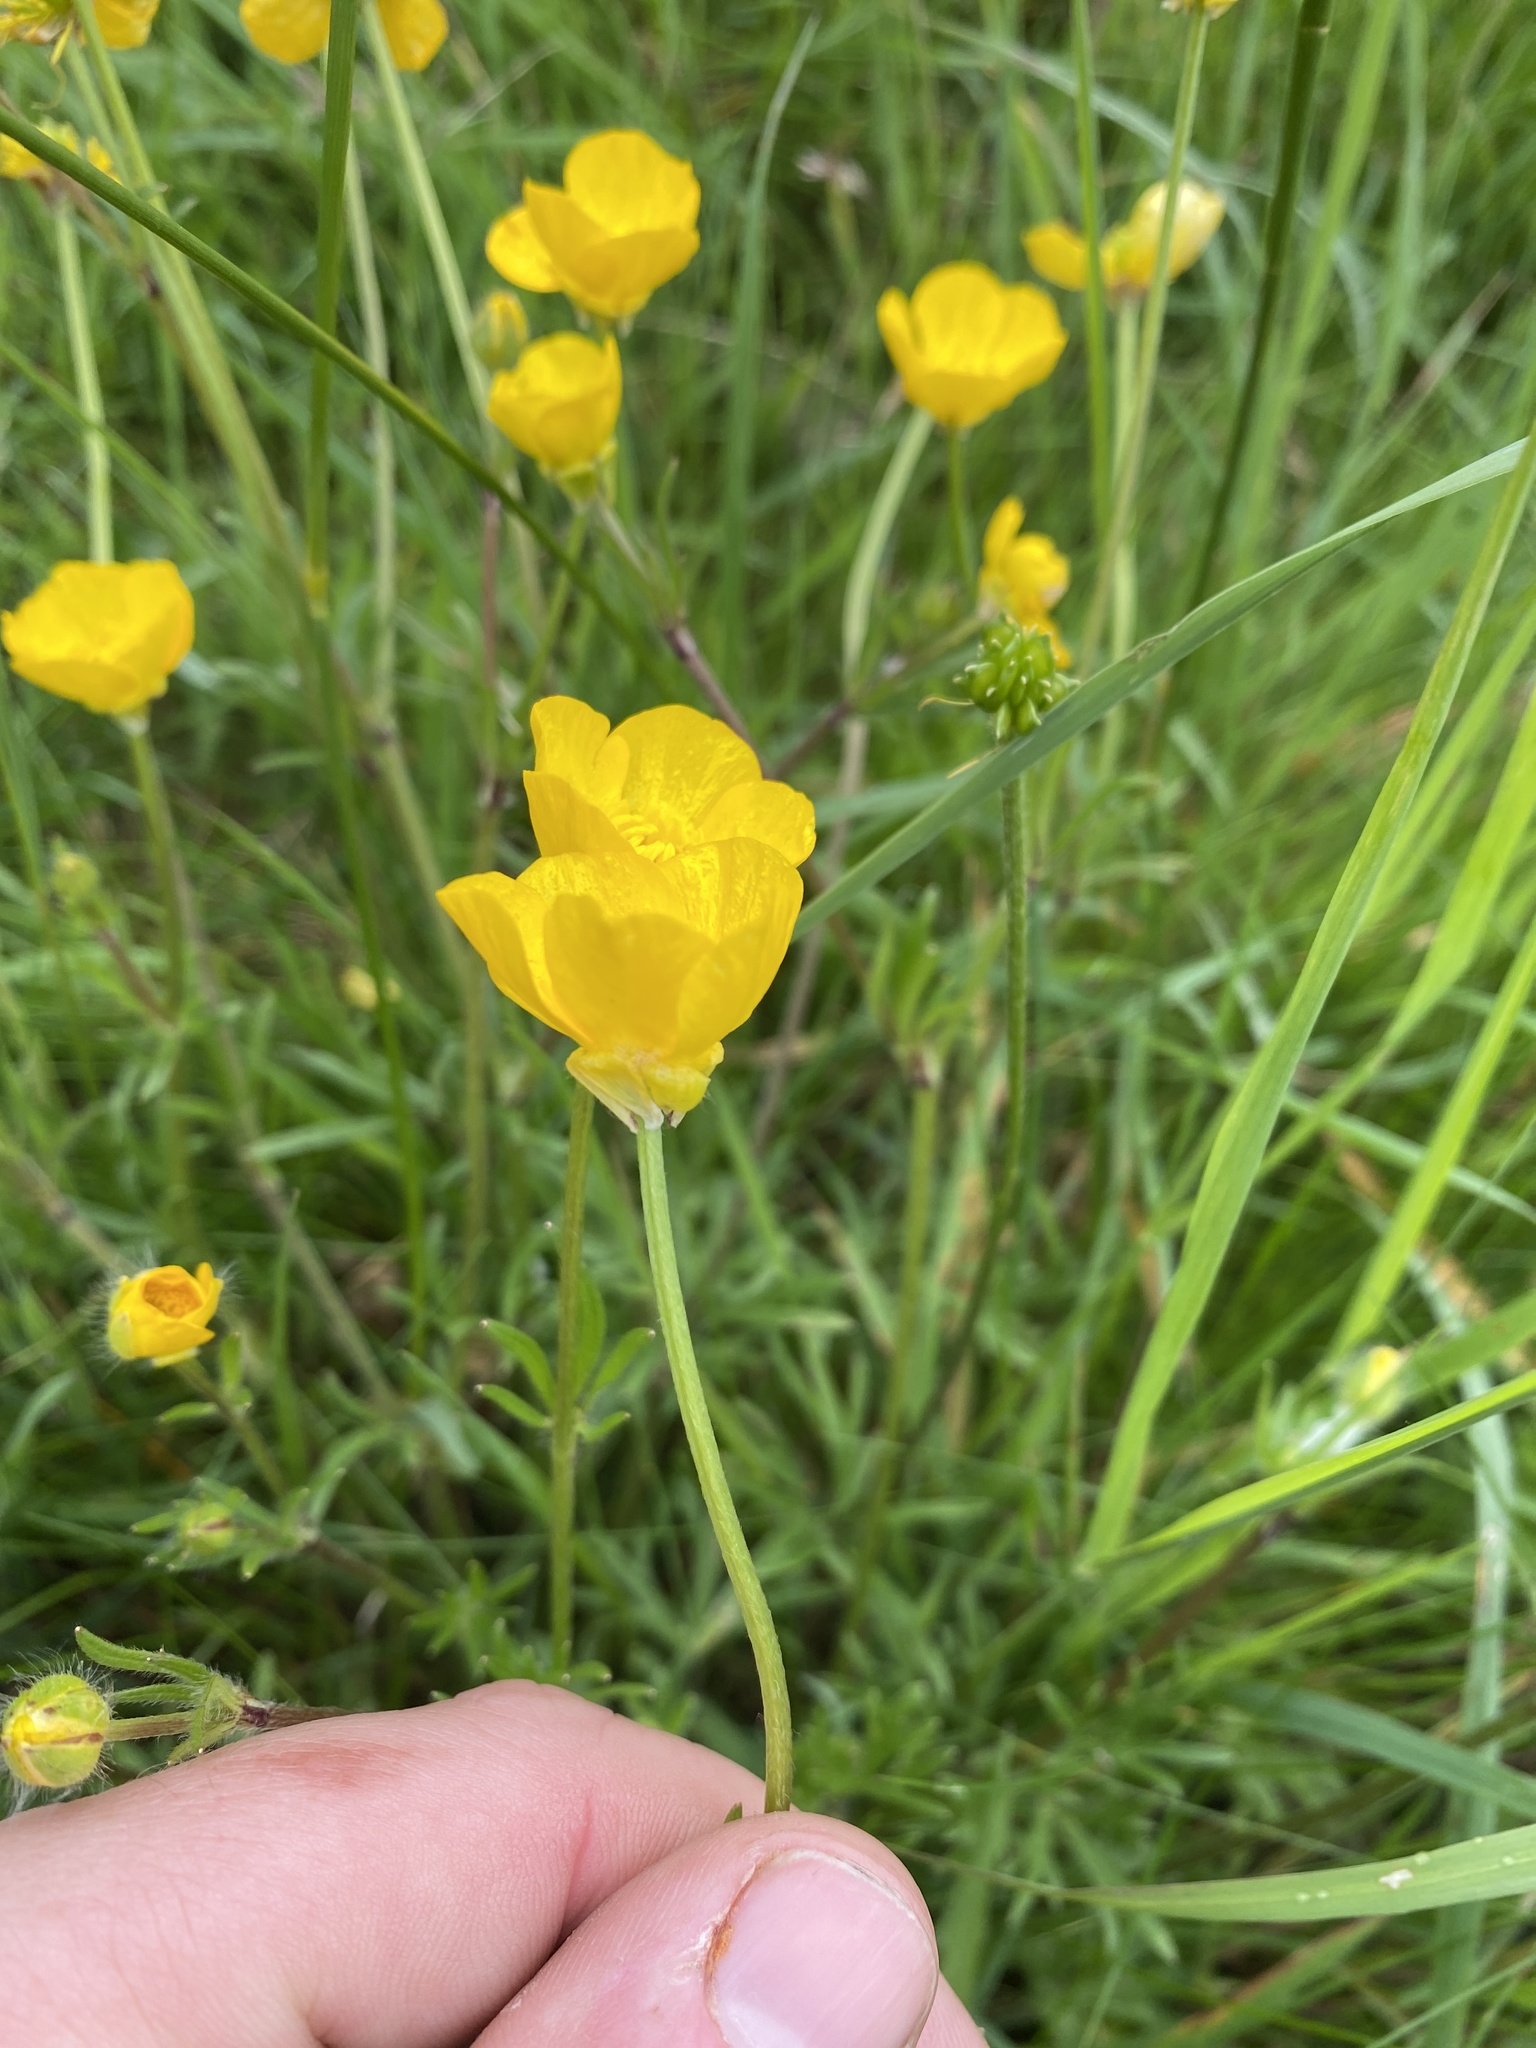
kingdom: Plantae
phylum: Tracheophyta
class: Magnoliopsida
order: Ranunculales
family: Ranunculaceae
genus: Ranunculus
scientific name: Ranunculus bulbosus
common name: Bulbous buttercup
